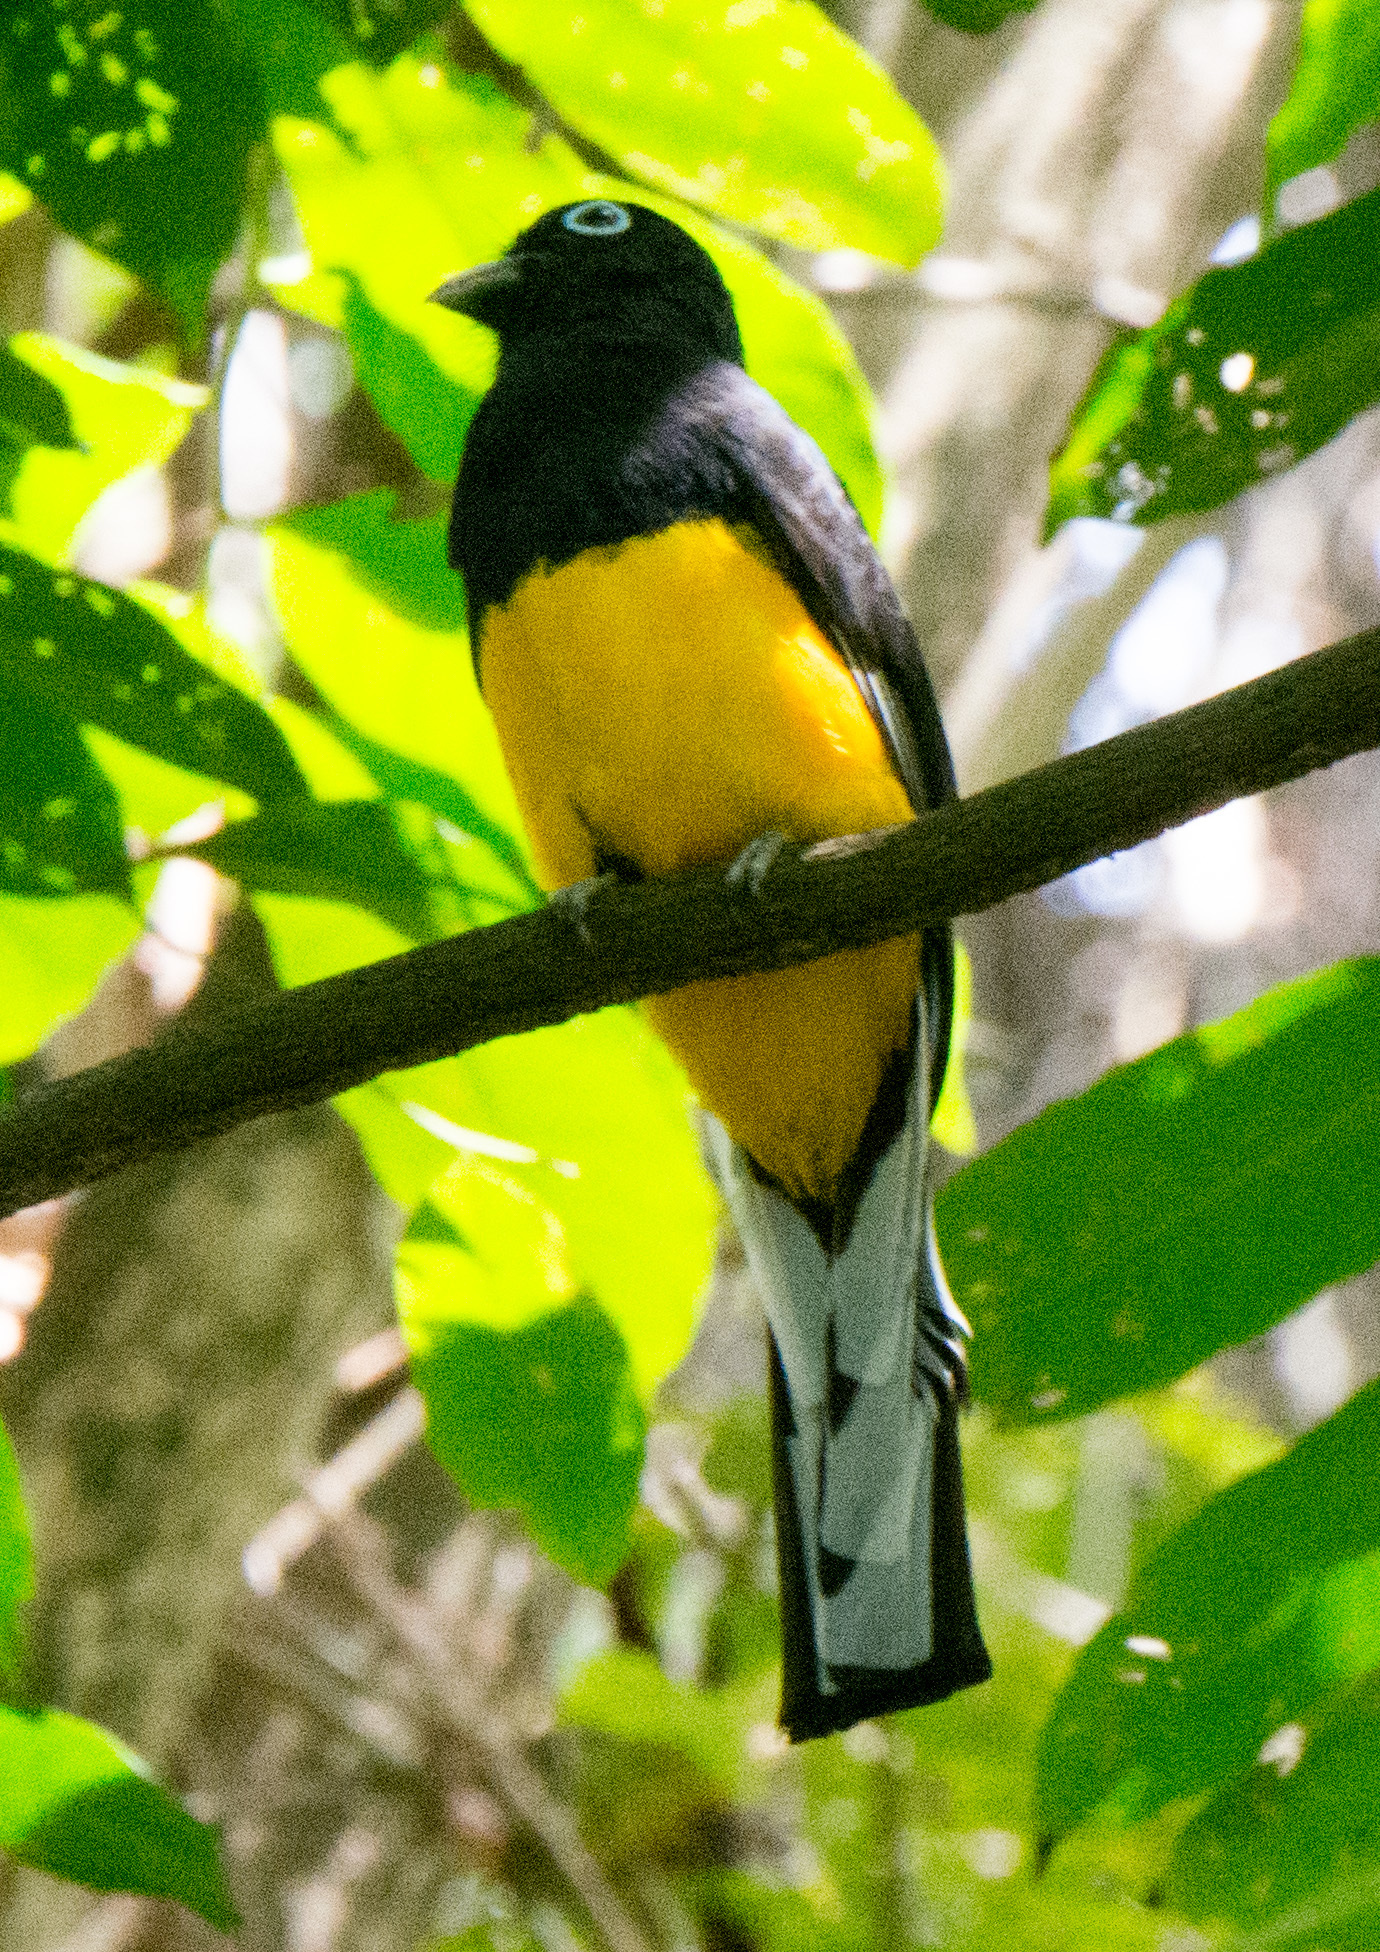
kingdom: Animalia
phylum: Chordata
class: Aves
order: Trogoniformes
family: Trogonidae
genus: Trogon
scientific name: Trogon viridis
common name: Green-backed trogon
